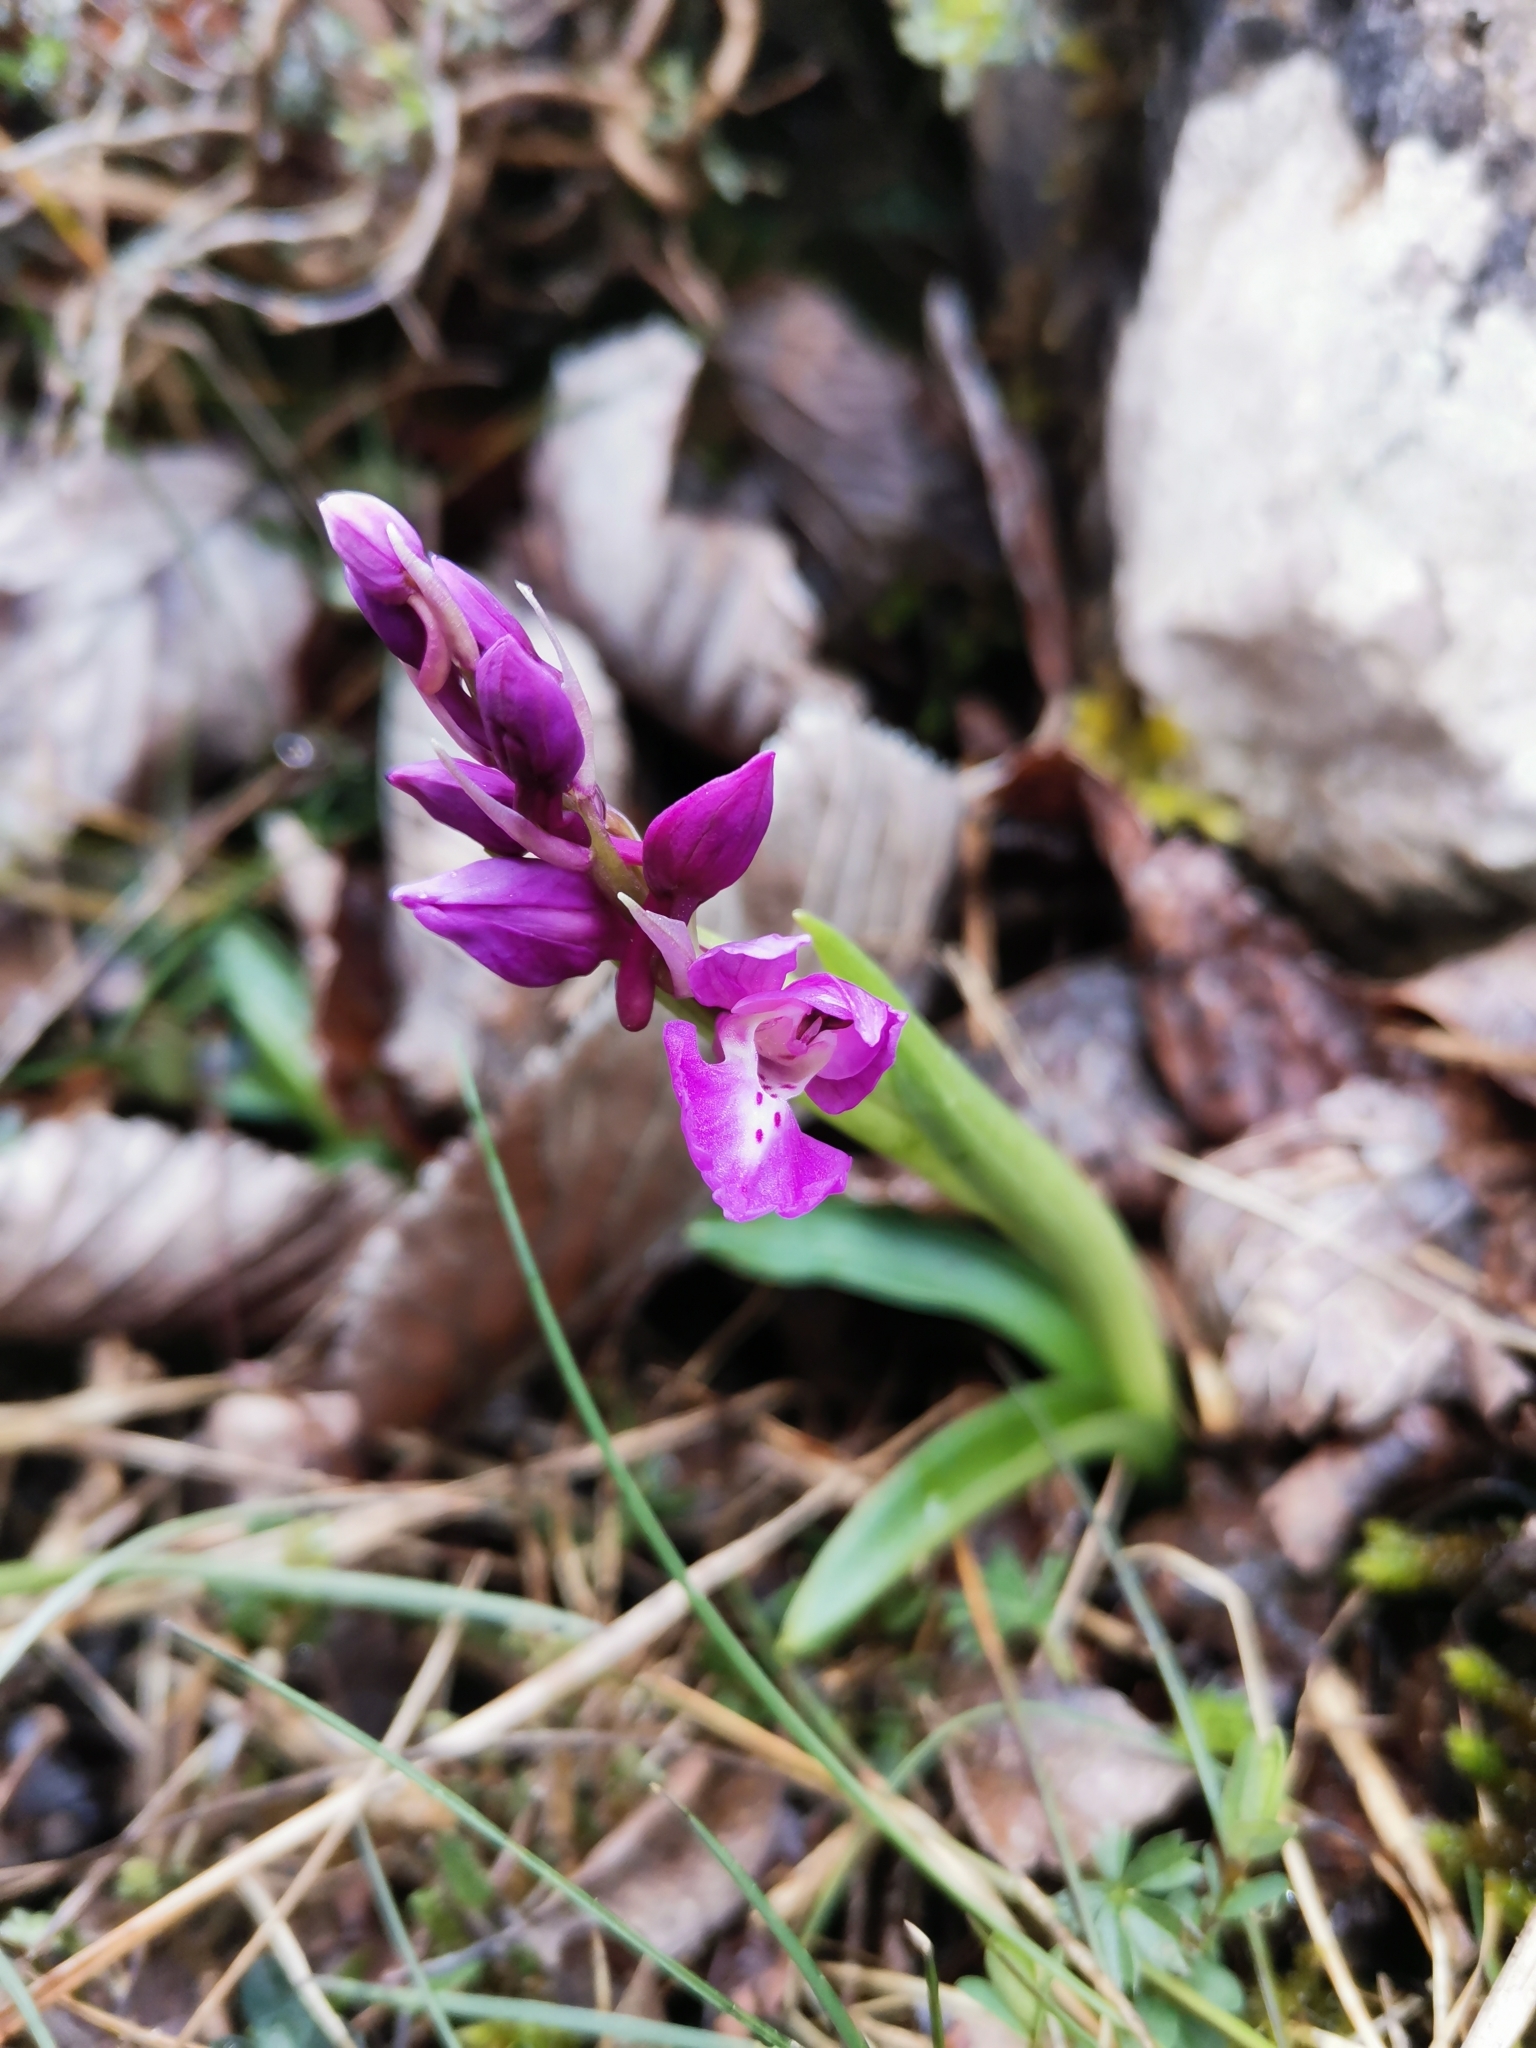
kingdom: Plantae
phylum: Tracheophyta
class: Liliopsida
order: Asparagales
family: Orchidaceae
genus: Orchis
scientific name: Orchis mascula
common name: Early-purple orchid
